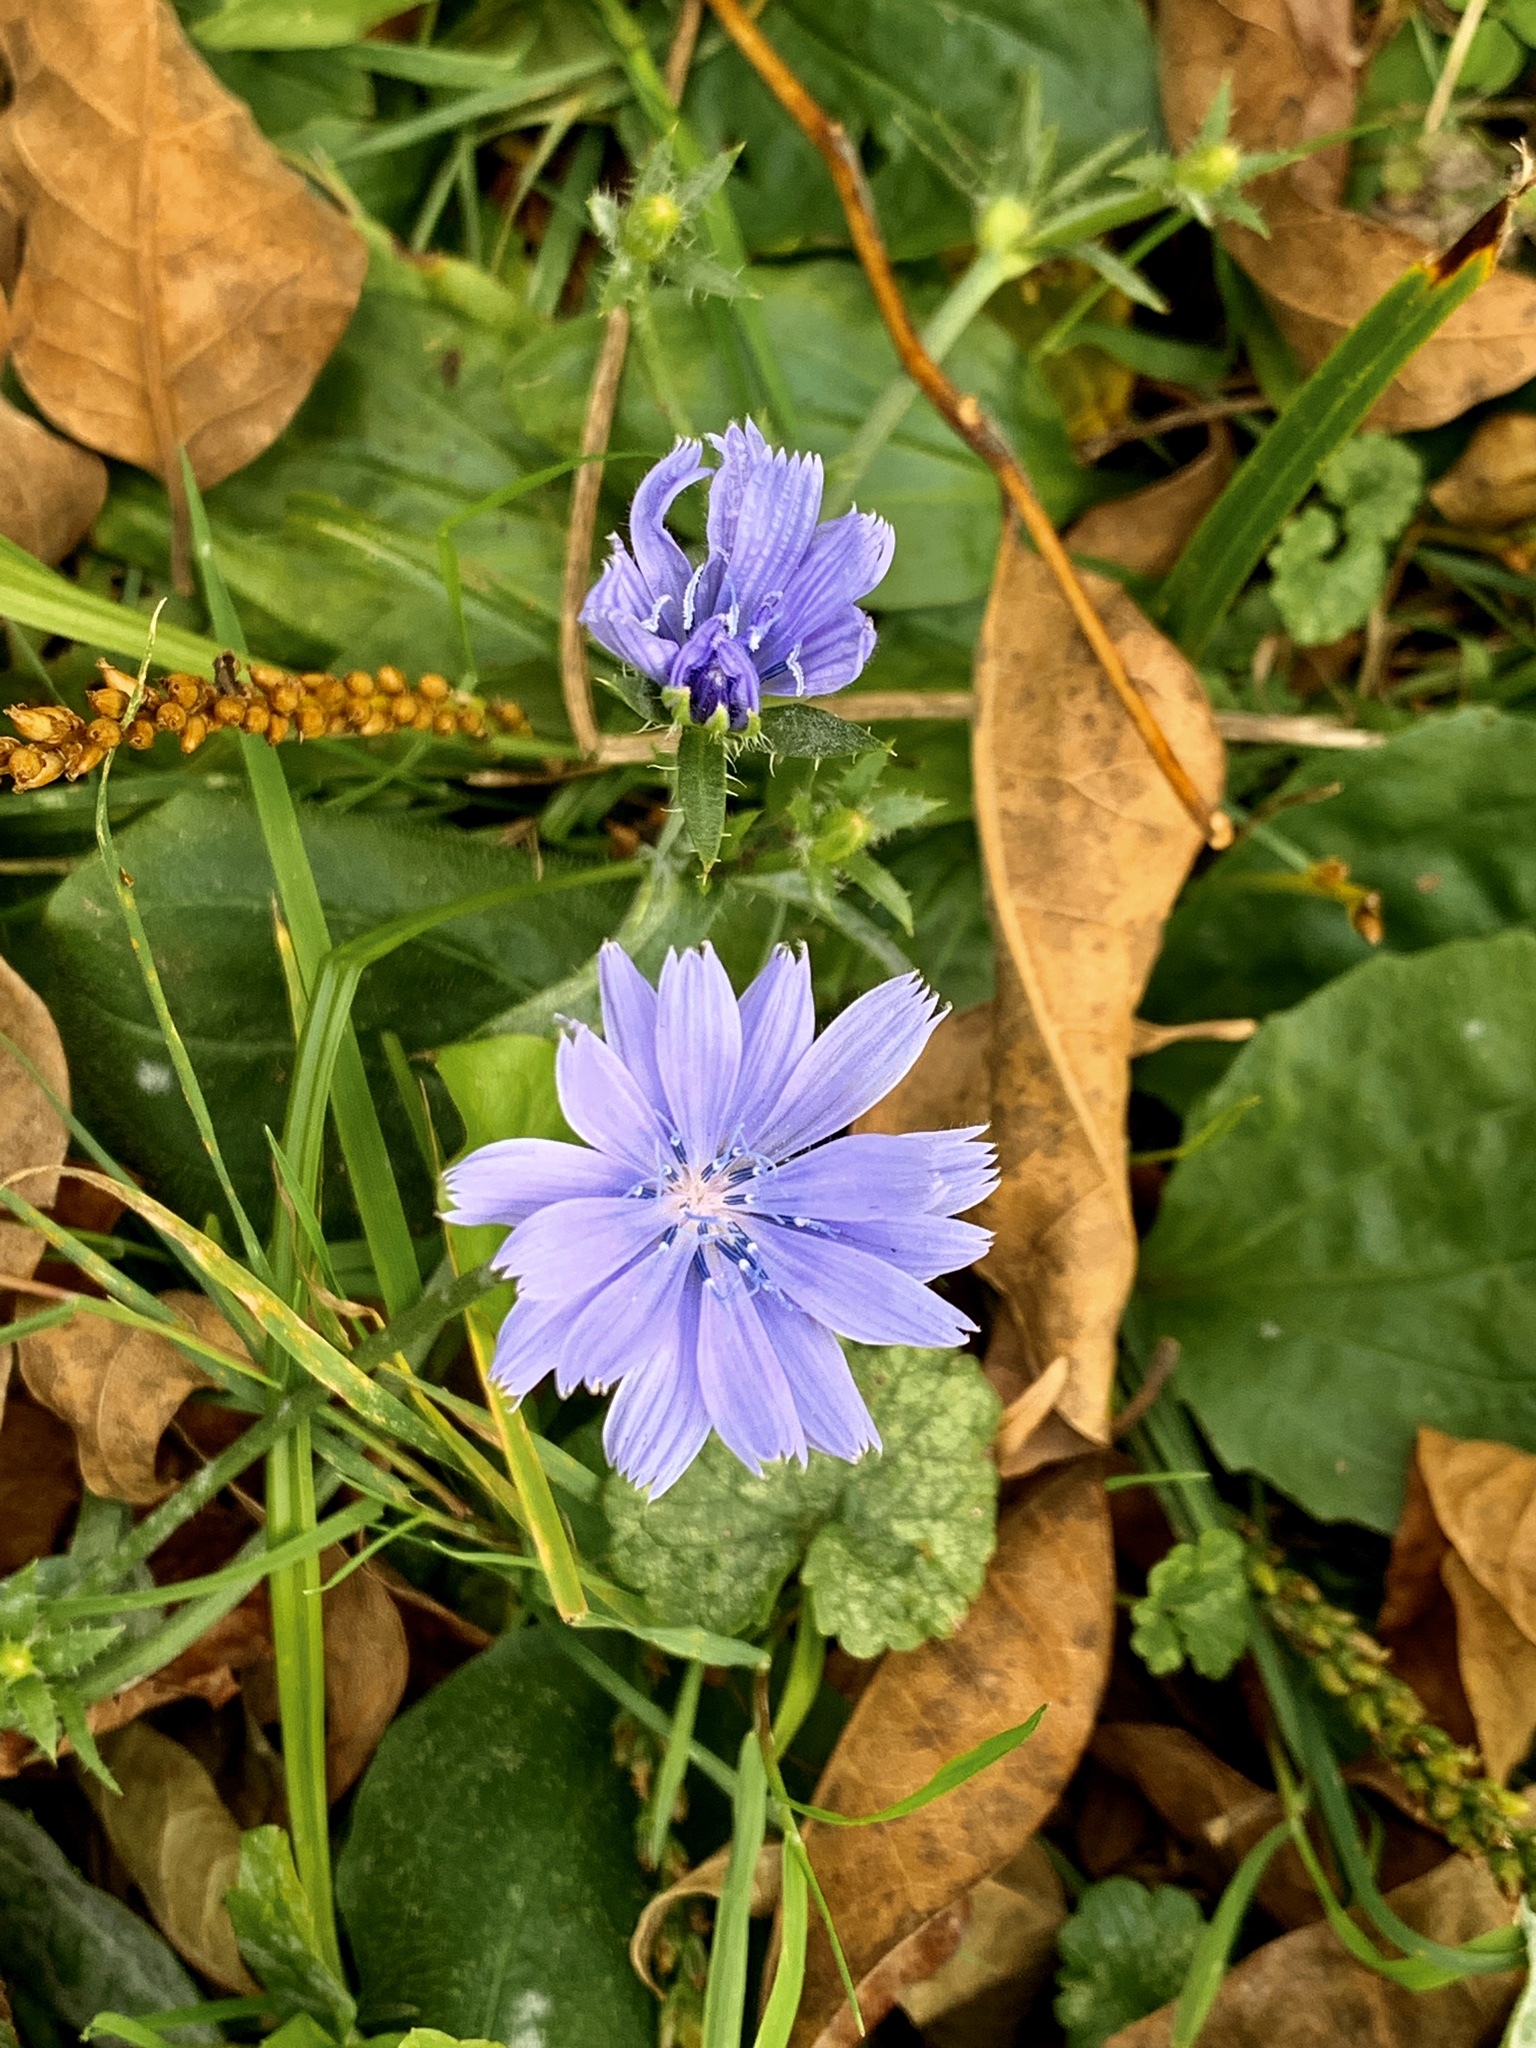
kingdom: Plantae
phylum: Tracheophyta
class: Magnoliopsida
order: Asterales
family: Asteraceae
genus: Cichorium
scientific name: Cichorium intybus
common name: Chicory
